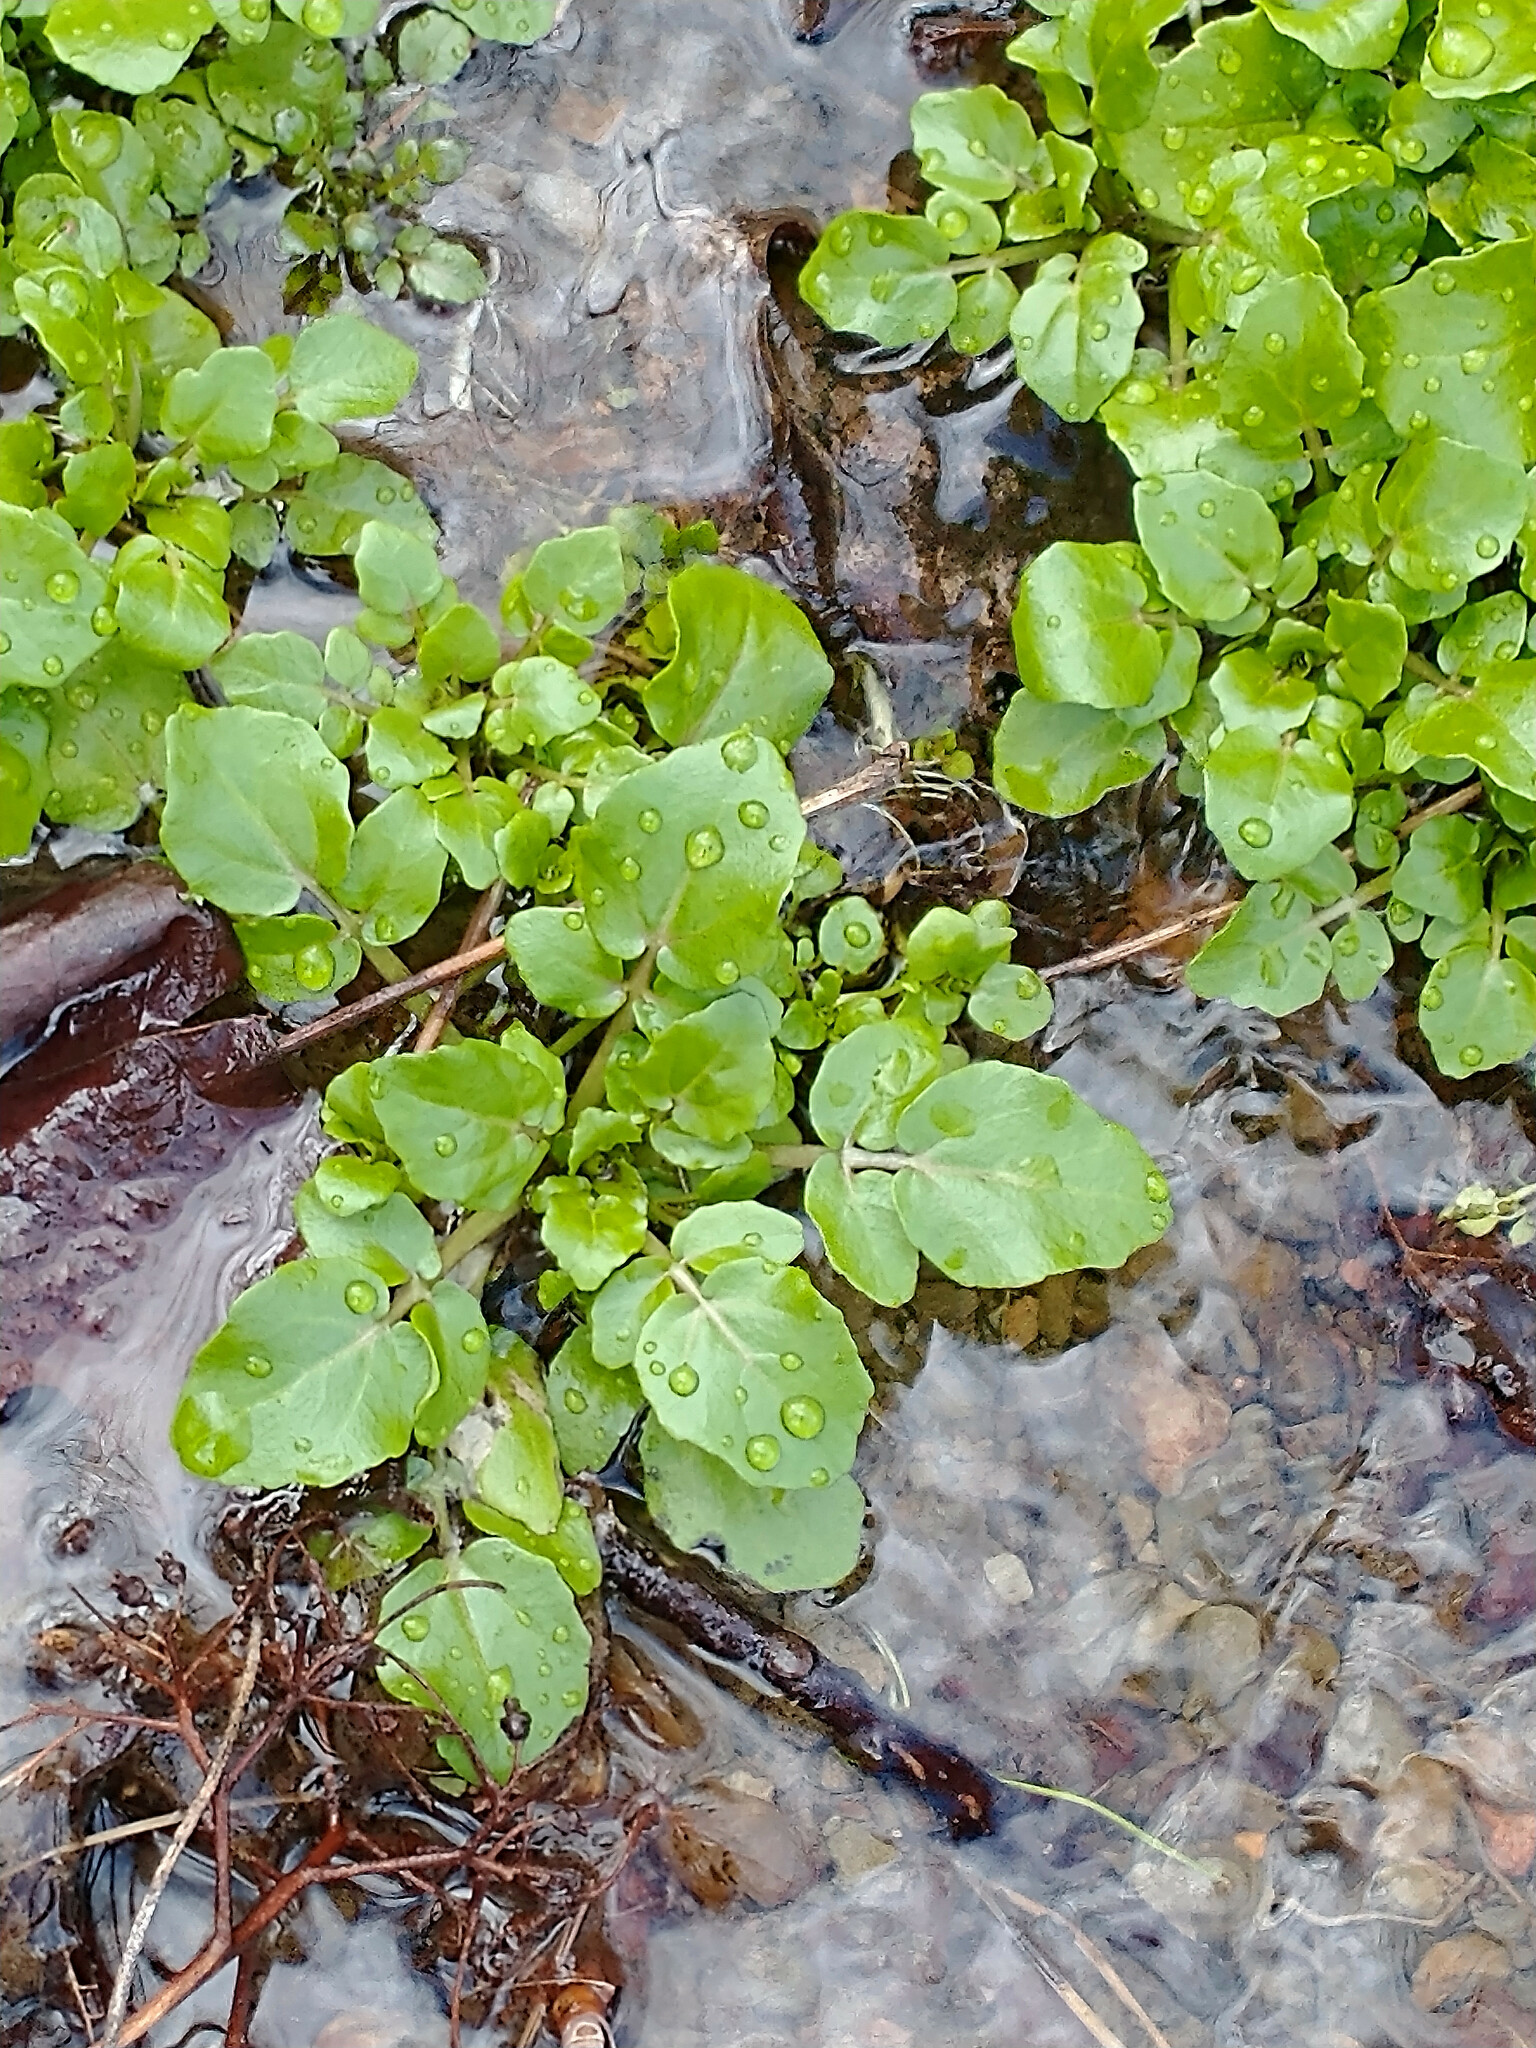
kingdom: Plantae
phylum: Tracheophyta
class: Magnoliopsida
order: Brassicales
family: Brassicaceae
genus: Nasturtium
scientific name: Nasturtium officinale
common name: Watercress
